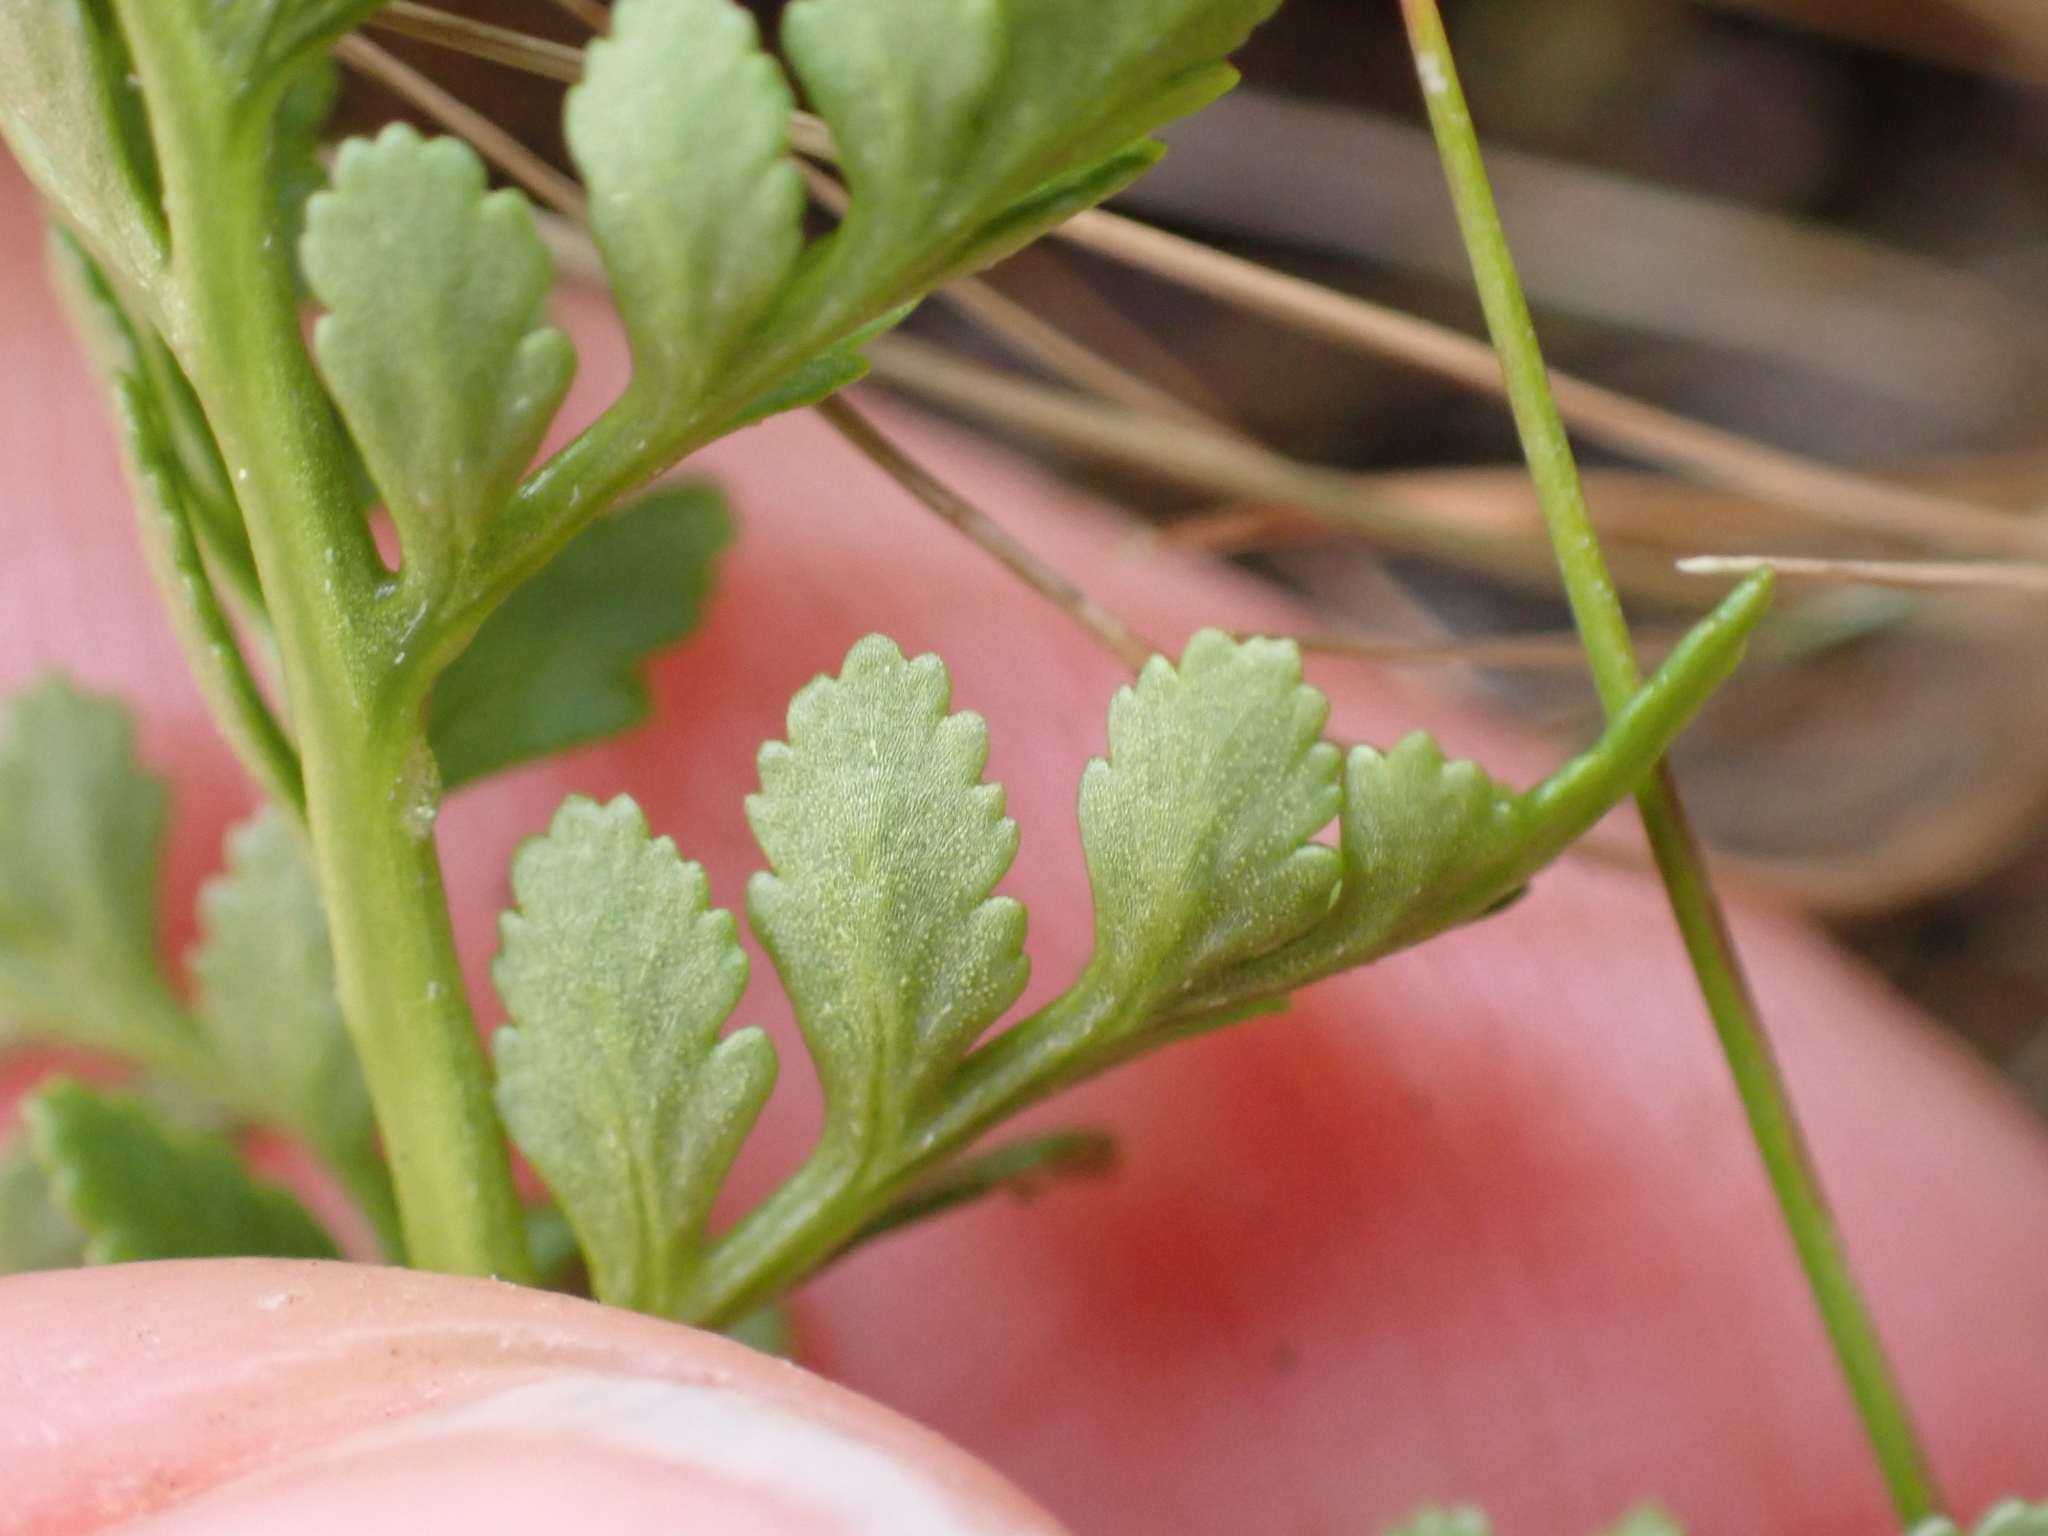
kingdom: Plantae
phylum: Tracheophyta
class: Polypodiopsida
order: Polypodiales
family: Pteridaceae
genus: Cryptogramma
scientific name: Cryptogramma acrostichoides
